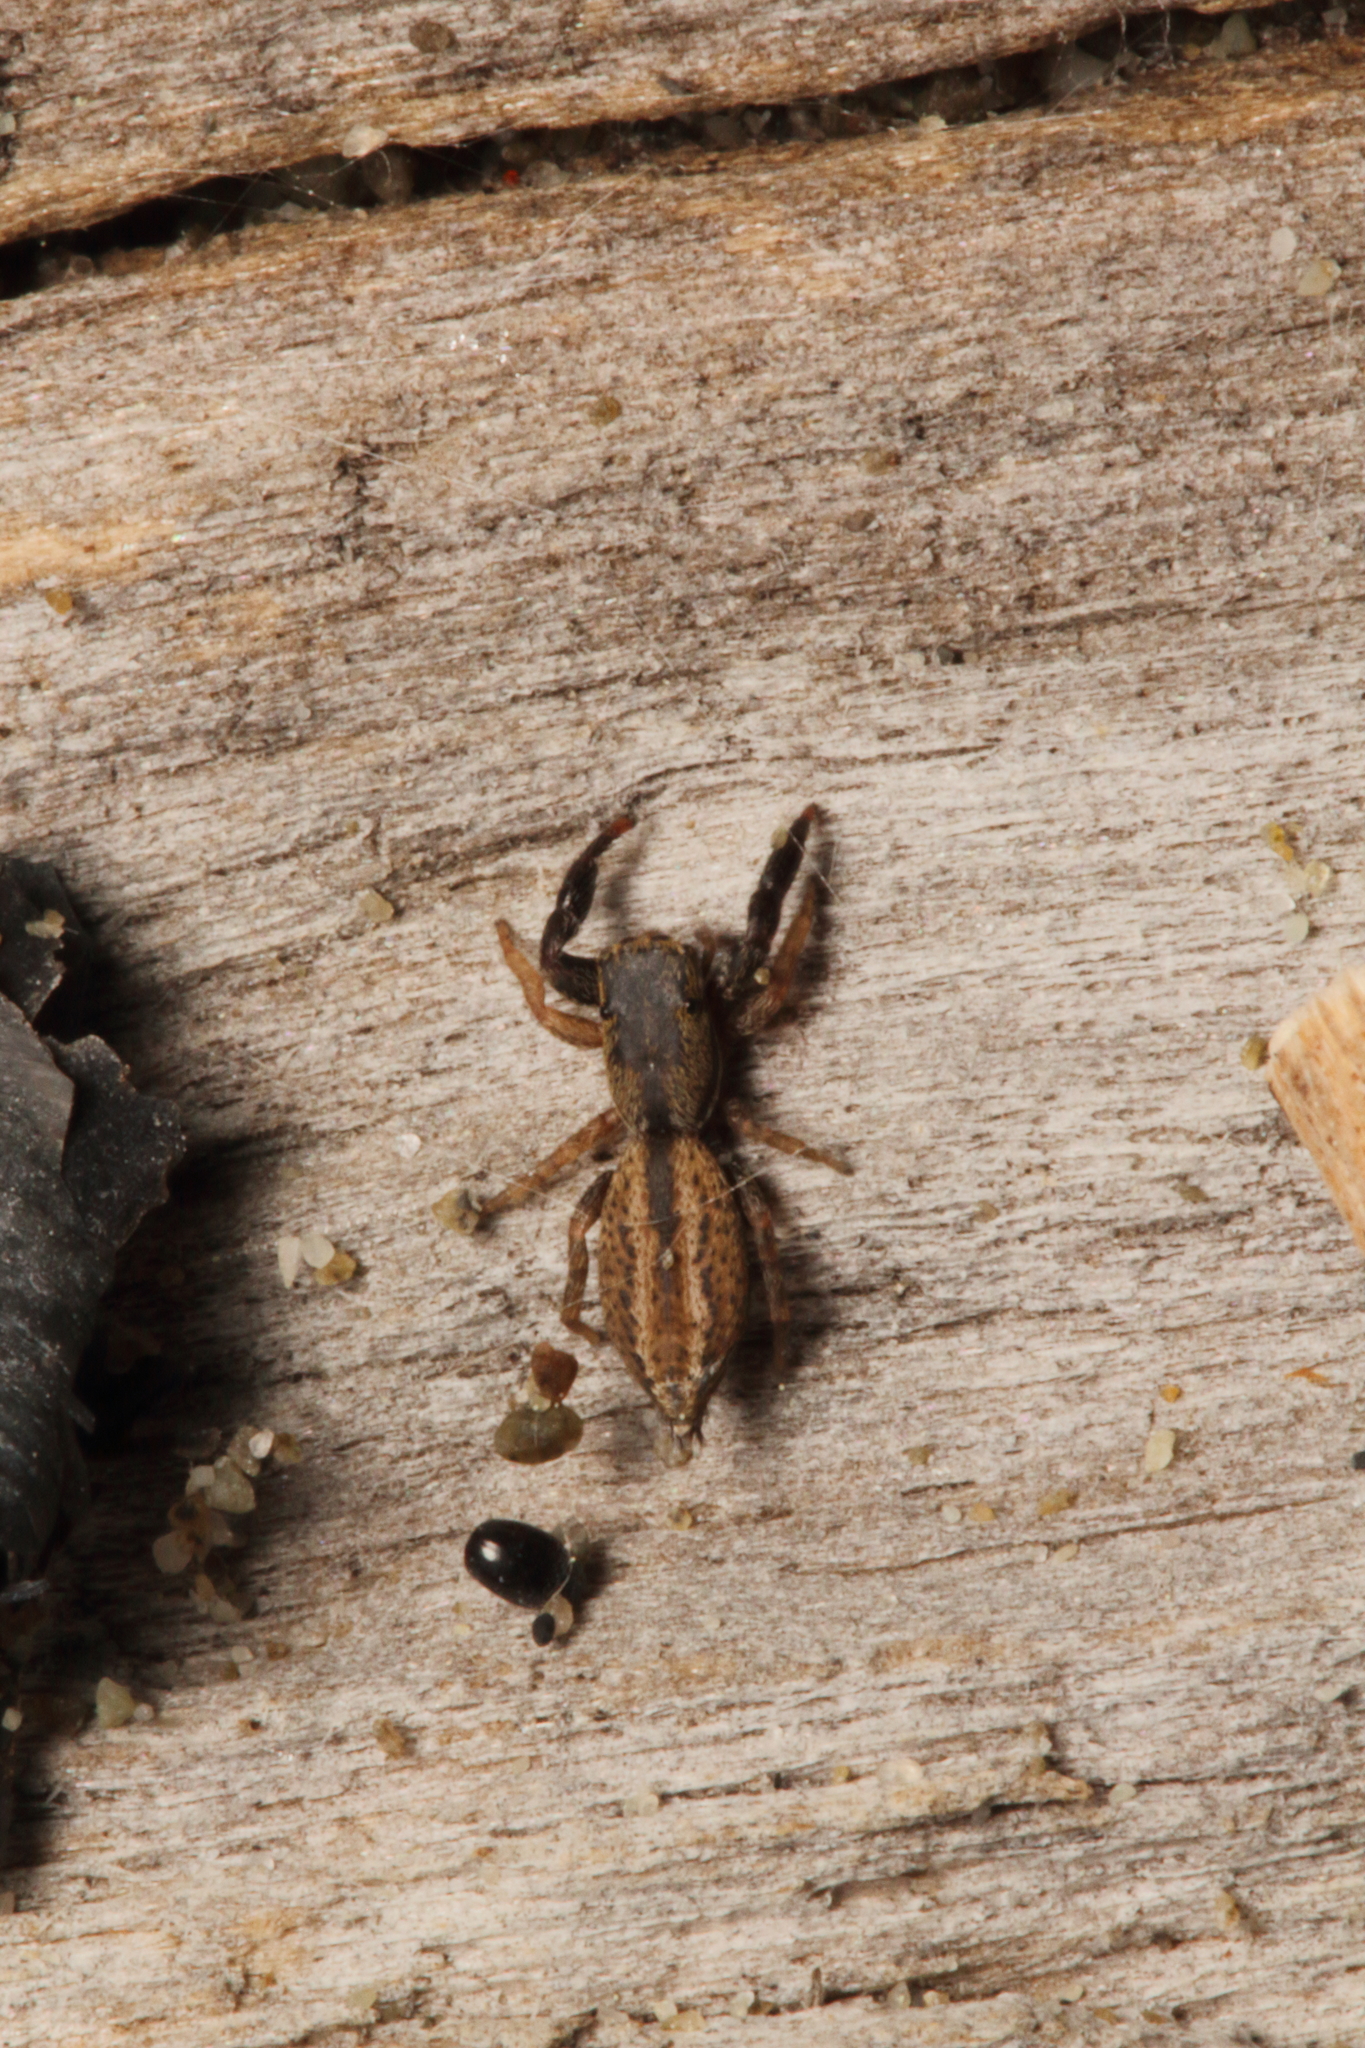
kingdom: Animalia
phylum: Arthropoda
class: Arachnida
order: Araneae
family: Salticidae
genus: Trite
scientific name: Trite pollardi
